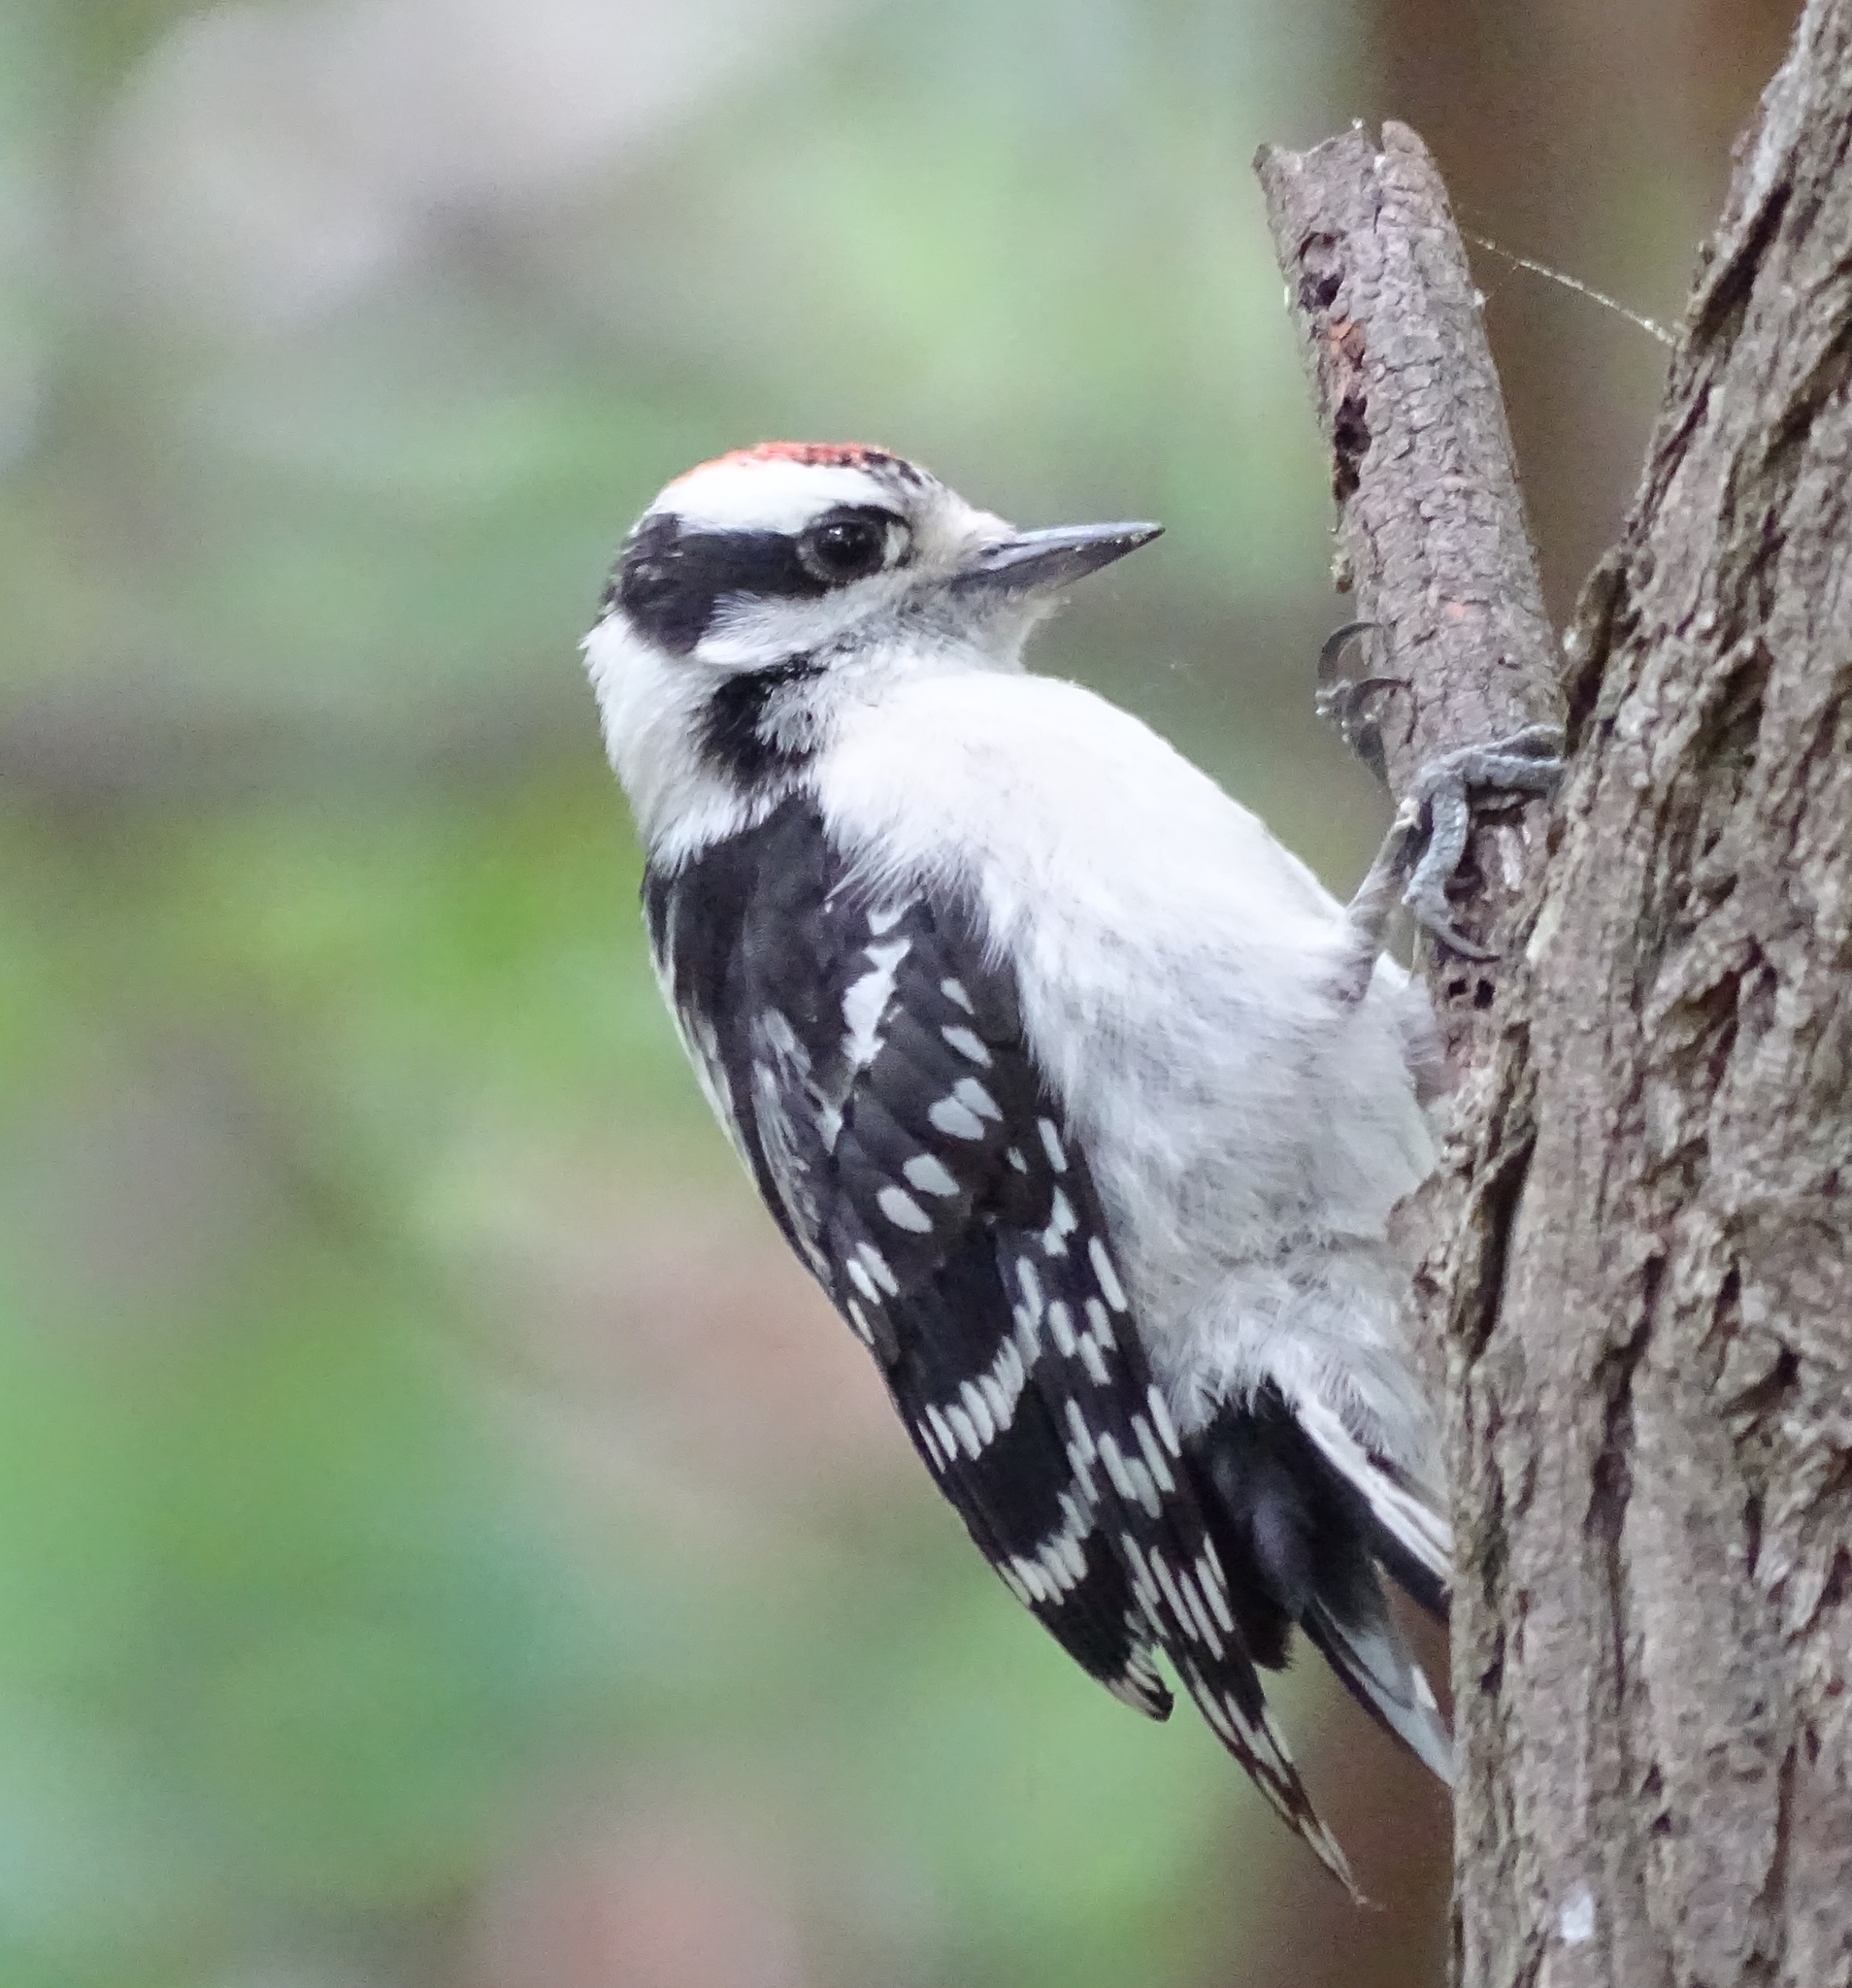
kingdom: Animalia
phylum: Chordata
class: Aves
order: Piciformes
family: Picidae
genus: Dryobates
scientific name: Dryobates pubescens
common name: Downy woodpecker
